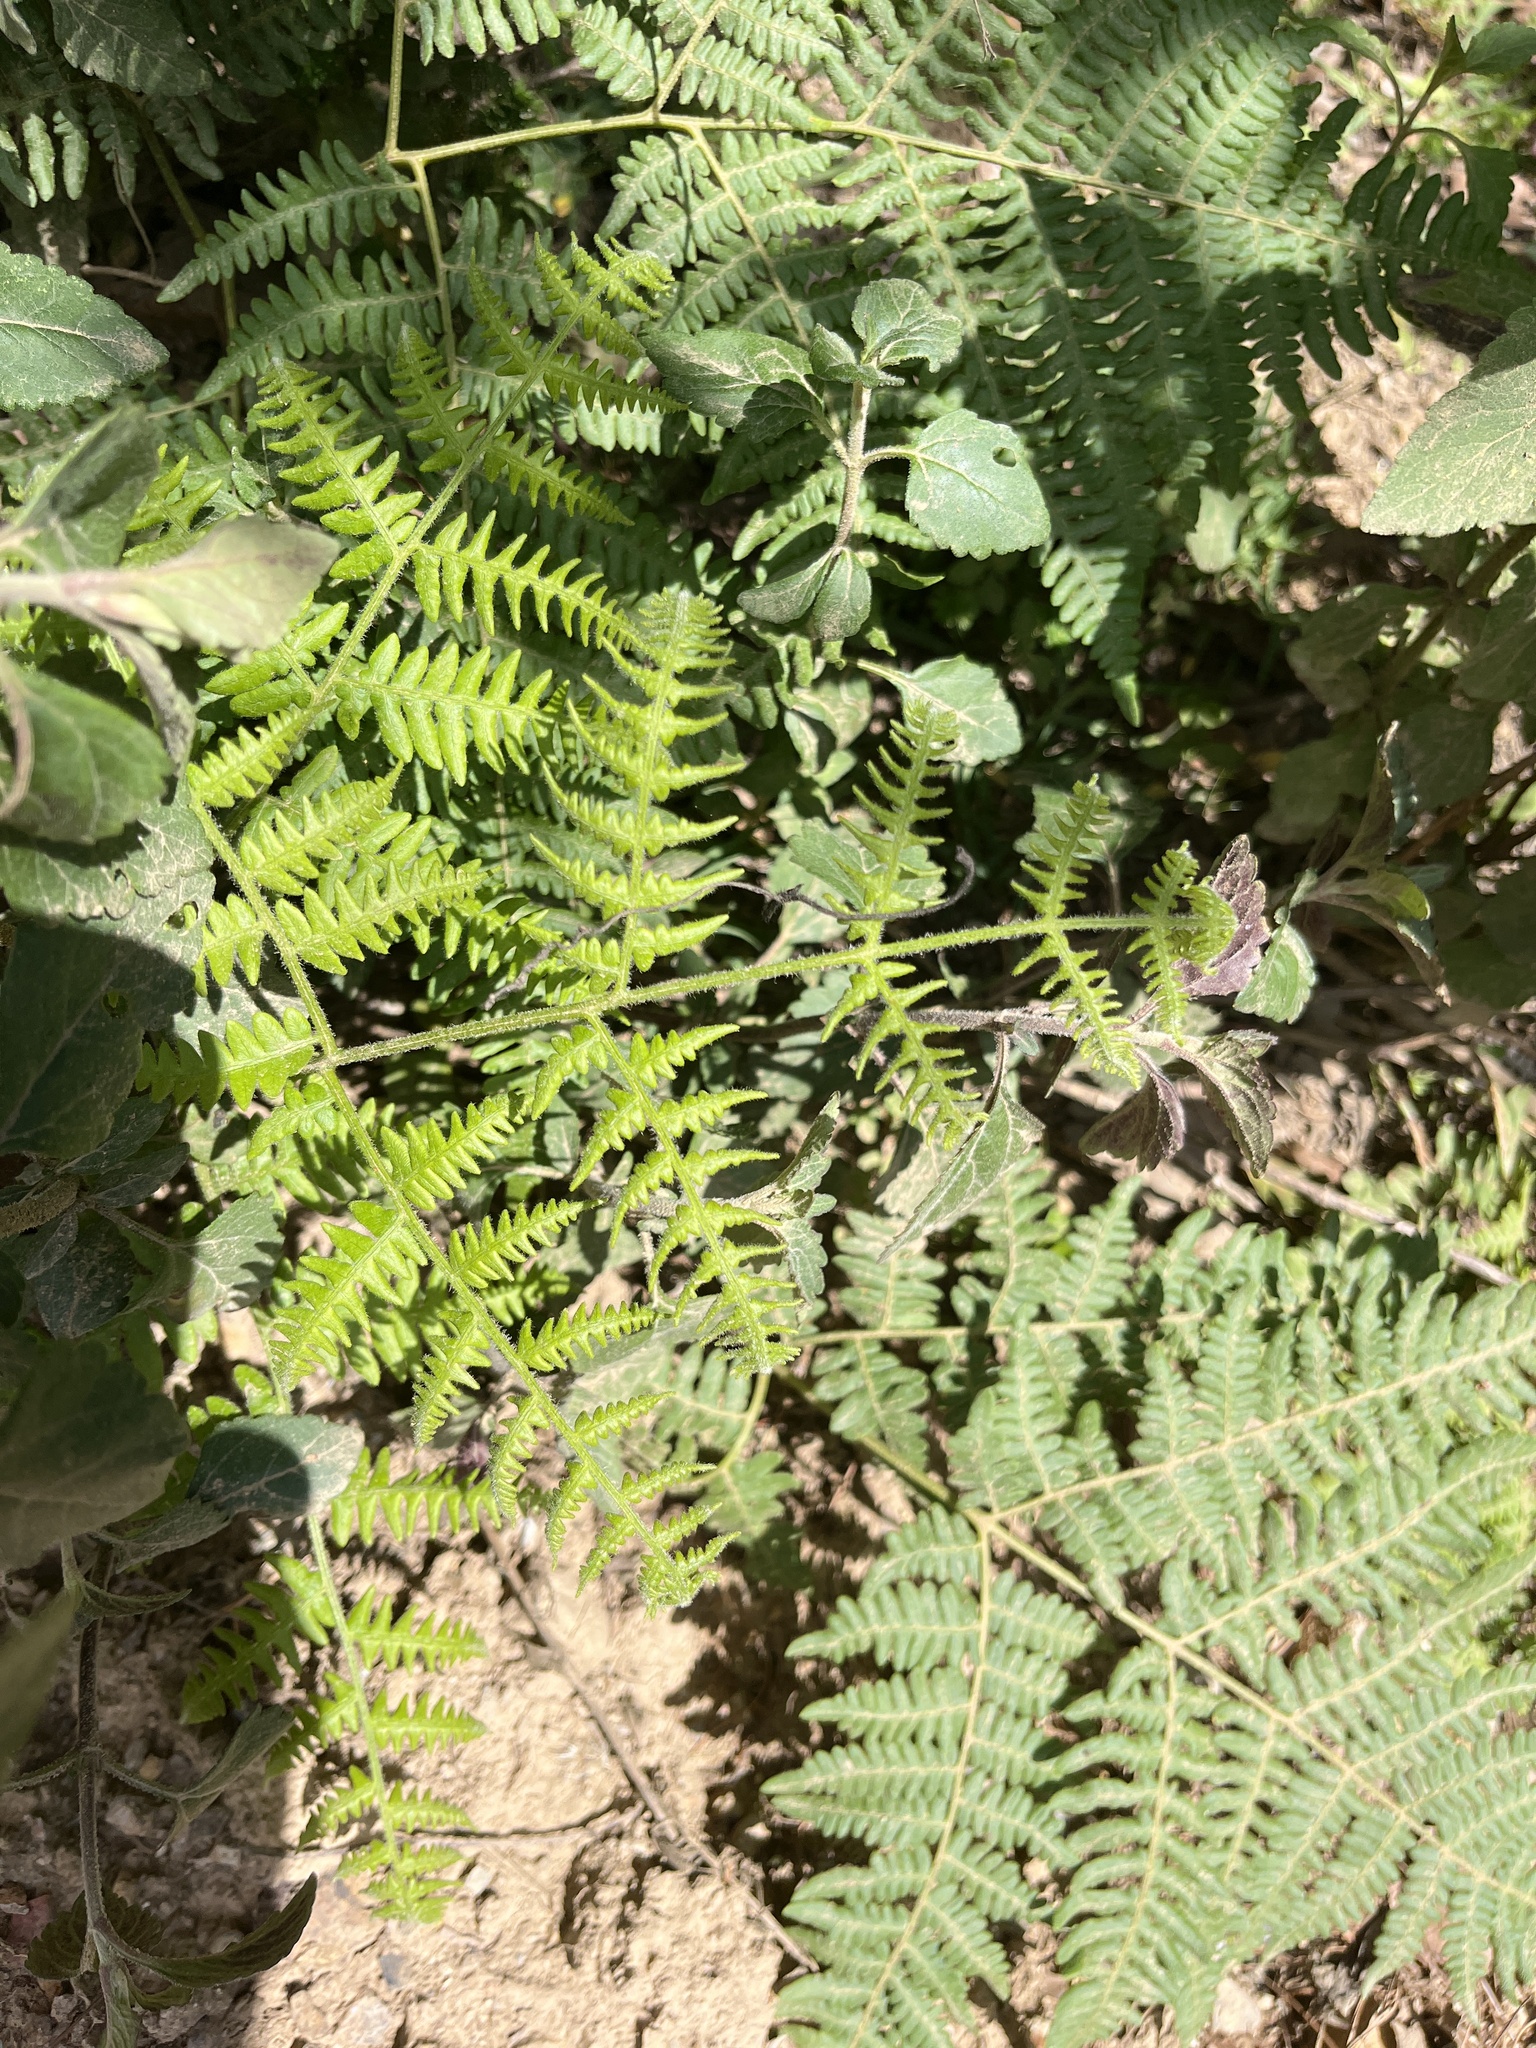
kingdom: Plantae
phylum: Tracheophyta
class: Polypodiopsida
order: Polypodiales
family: Dennstaedtiaceae
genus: Pteridium
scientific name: Pteridium aquilinum
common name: Bracken
